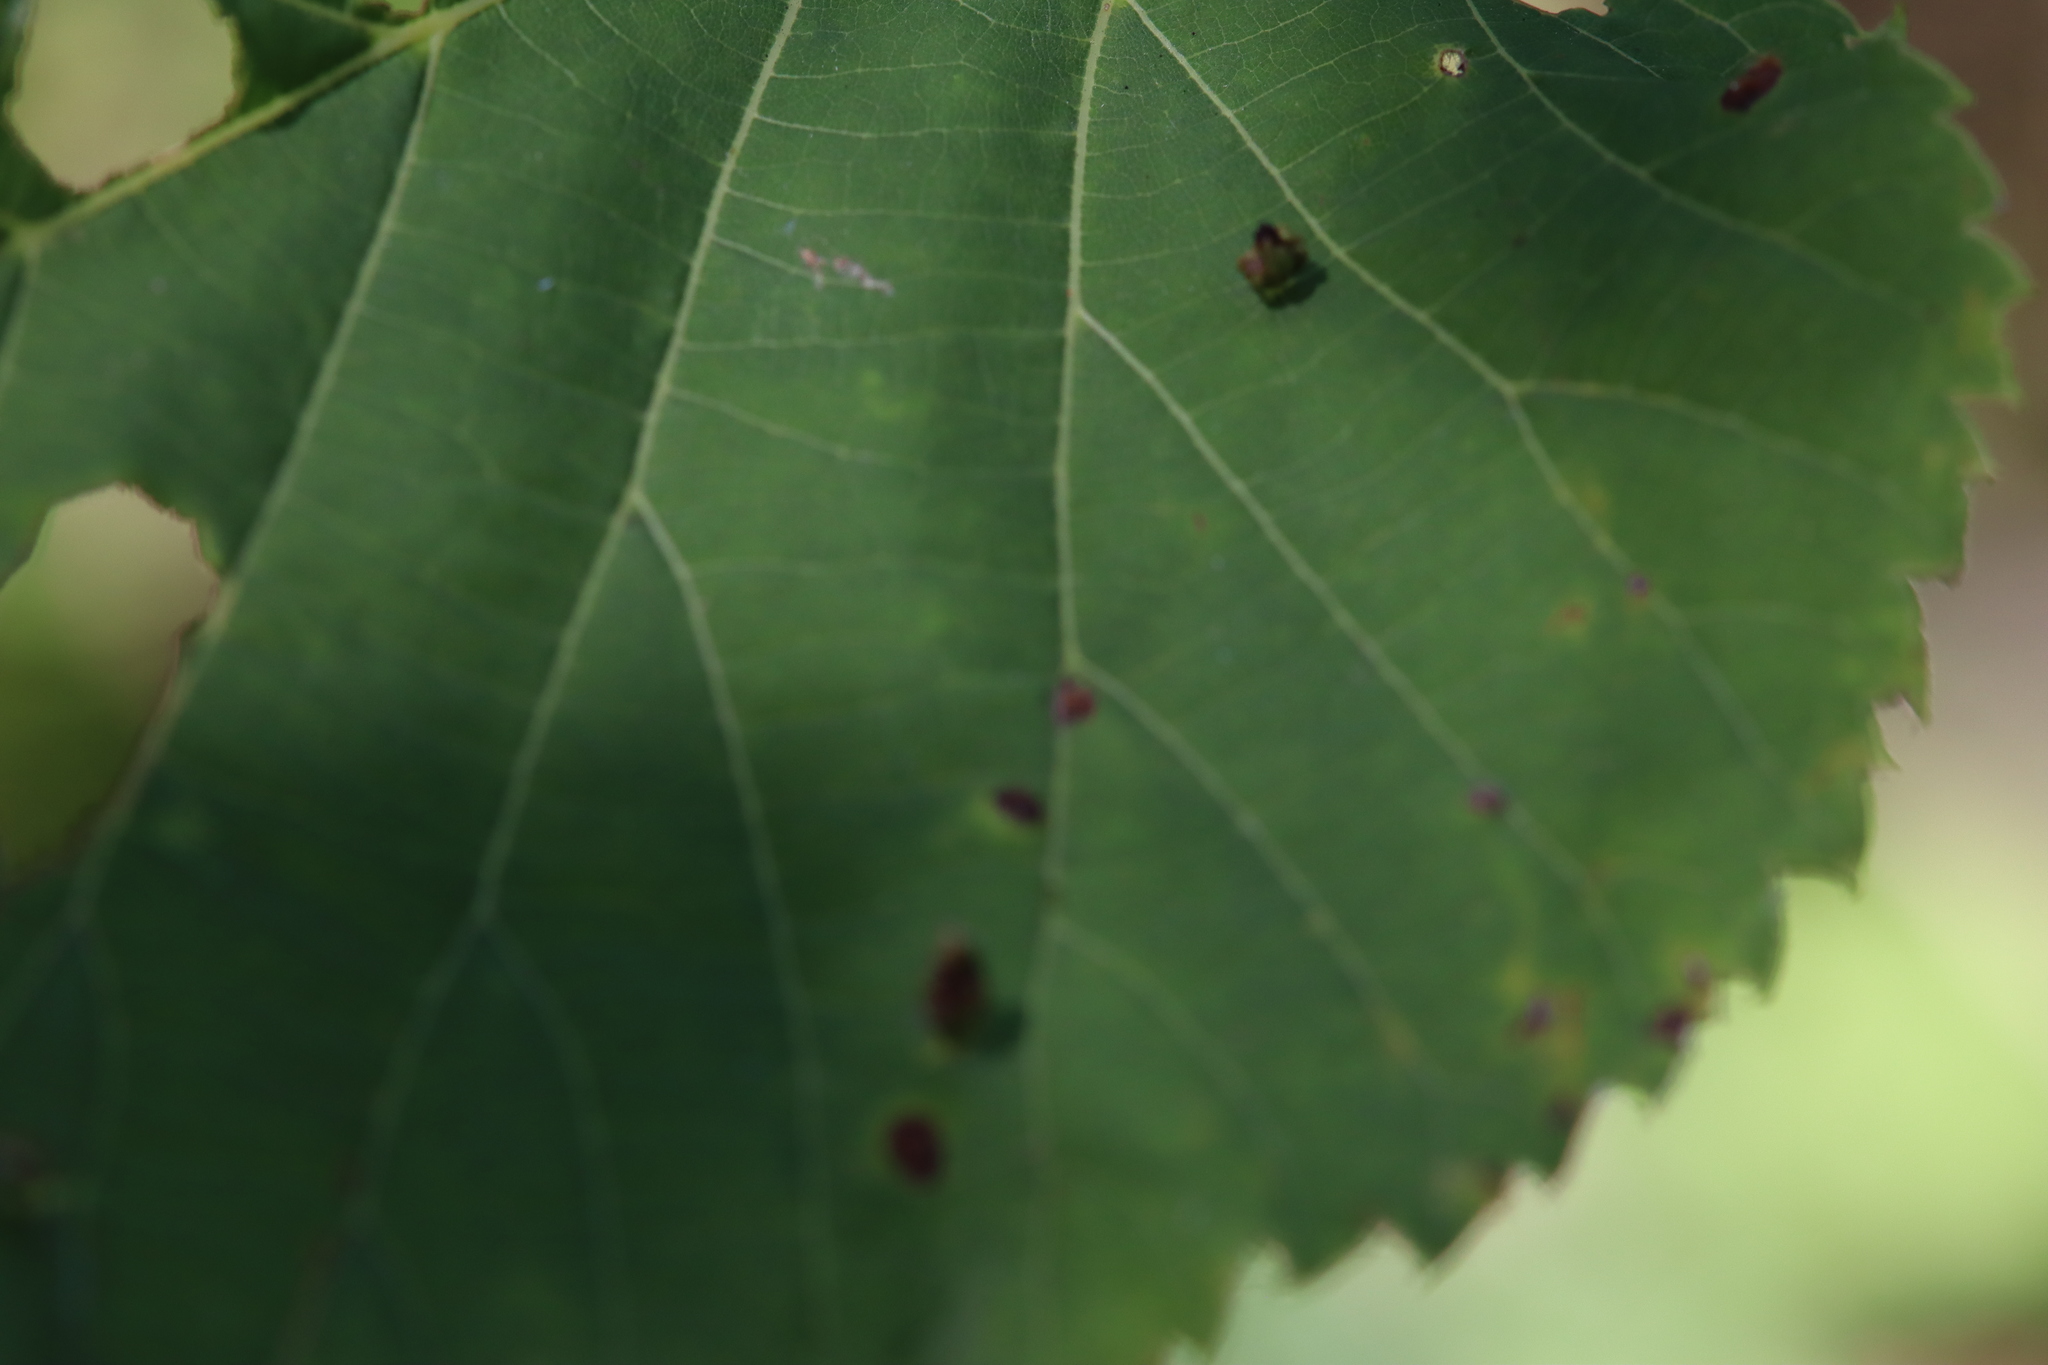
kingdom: Animalia
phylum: Arthropoda
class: Arachnida
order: Trombidiformes
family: Eriophyidae
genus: Eriophyes
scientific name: Eriophyes tiliae
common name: Red nail gall mite
